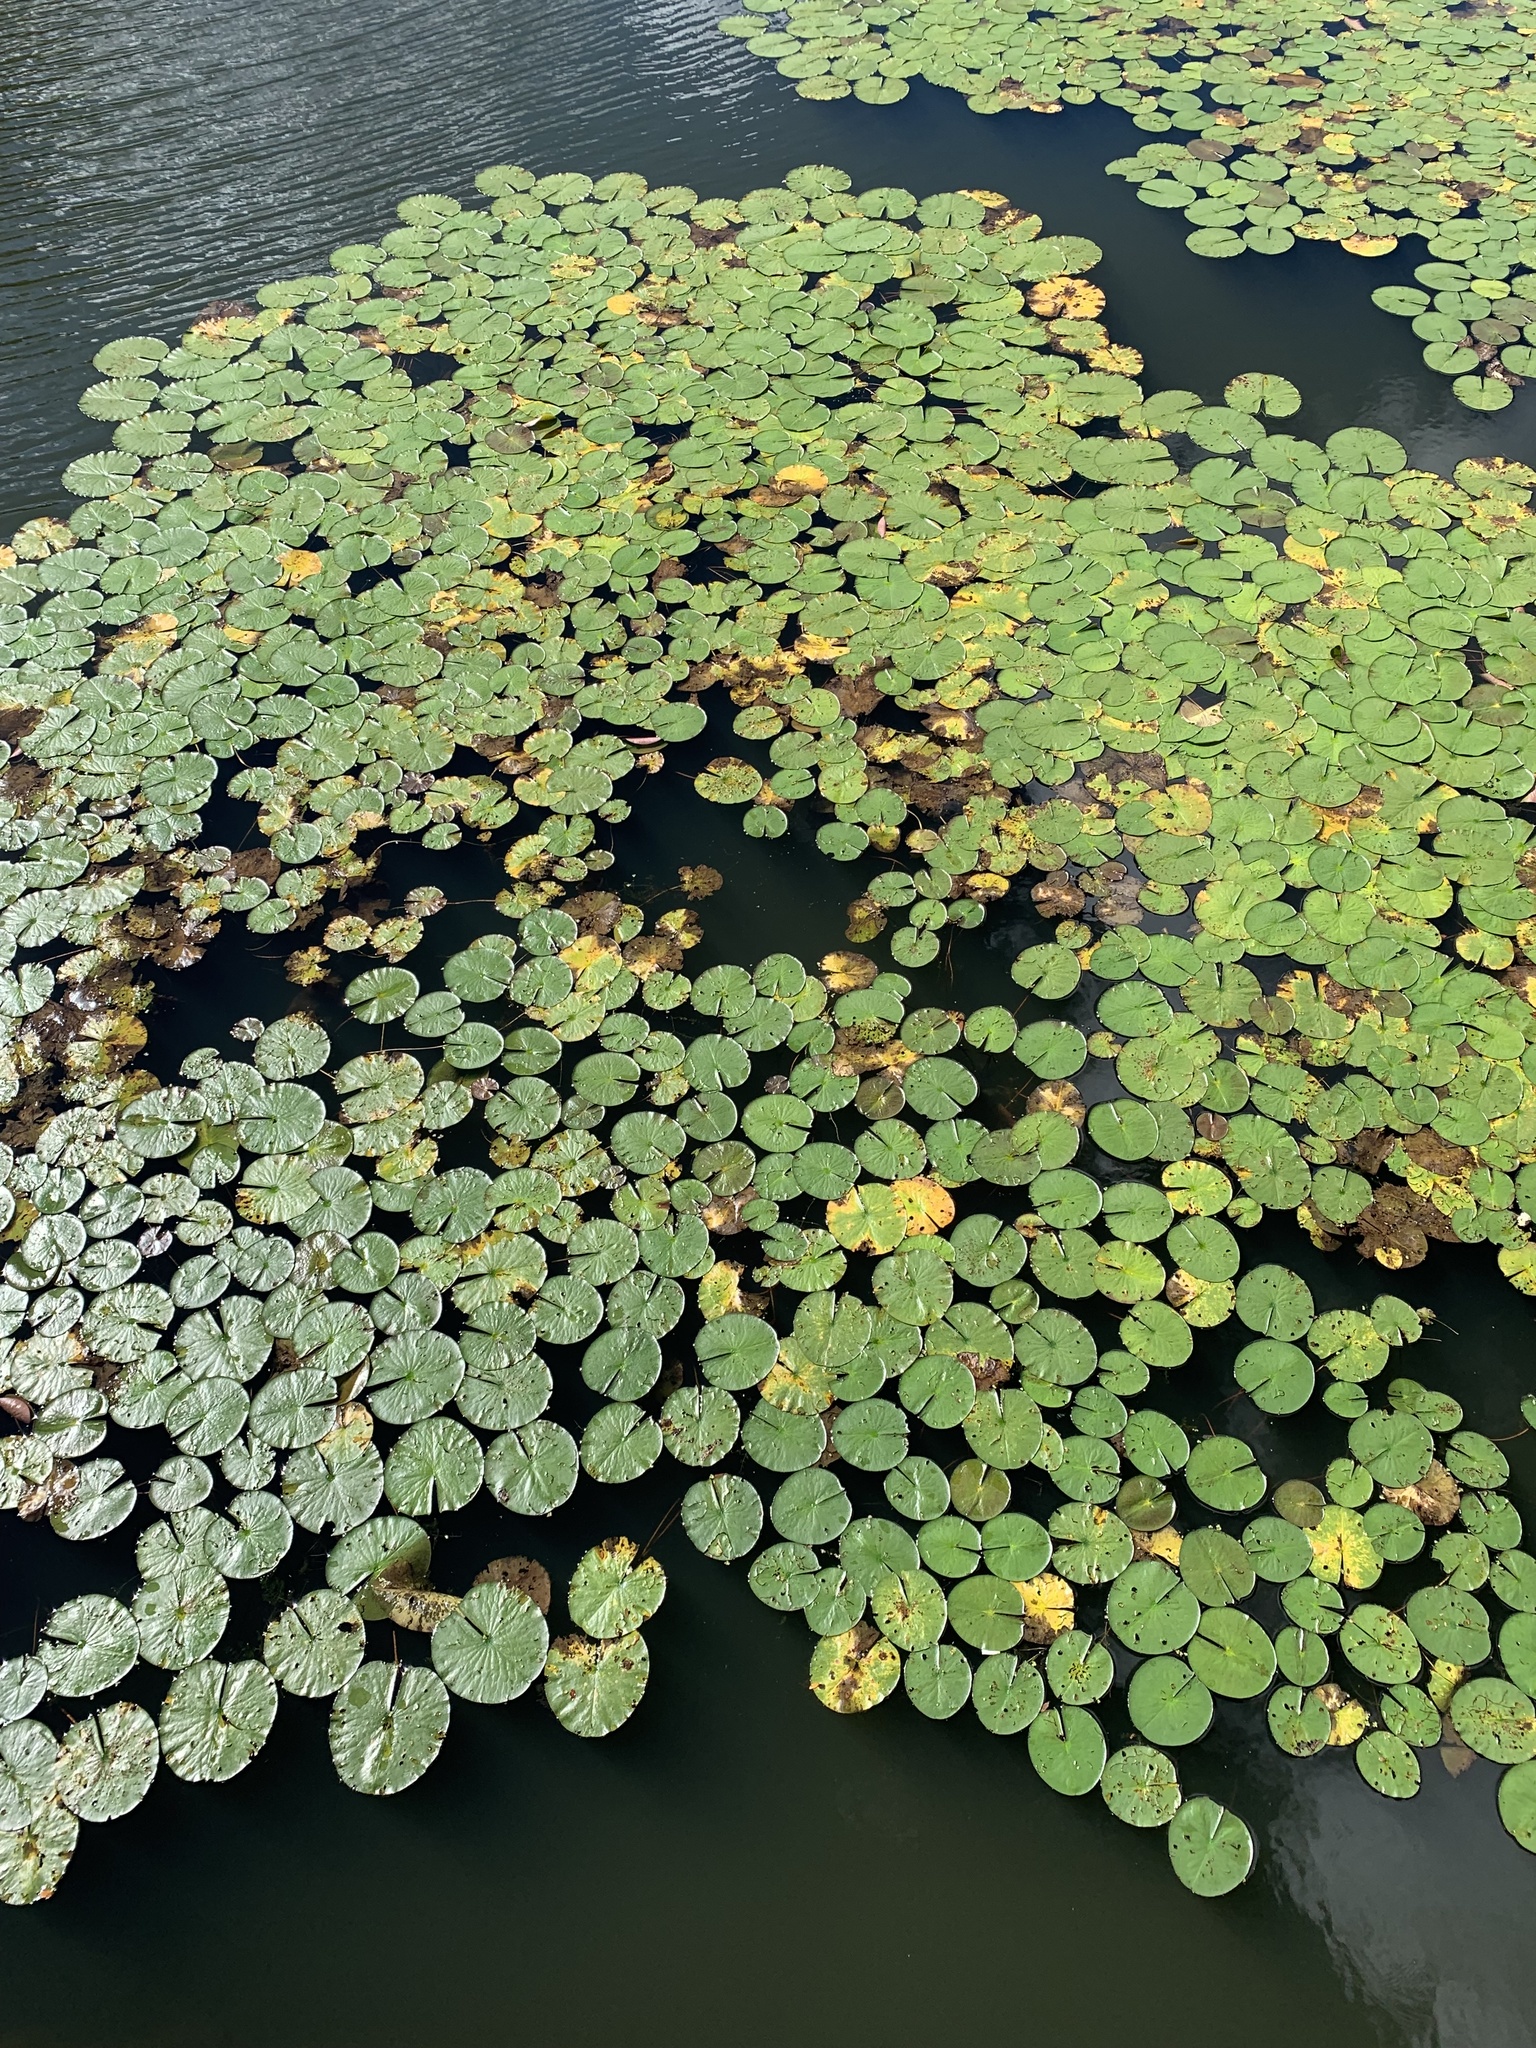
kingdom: Plantae
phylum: Tracheophyta
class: Magnoliopsida
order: Nymphaeales
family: Nymphaeaceae
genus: Nymphaea
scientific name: Nymphaea odorata
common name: Fragrant water-lily
